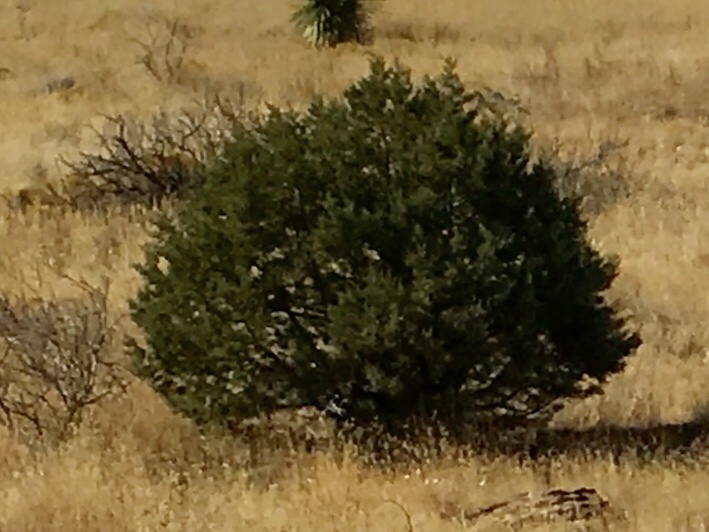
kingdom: Plantae
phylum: Tracheophyta
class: Pinopsida
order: Pinales
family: Cupressaceae
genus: Juniperus
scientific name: Juniperus deppeana
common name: Alligator juniper
